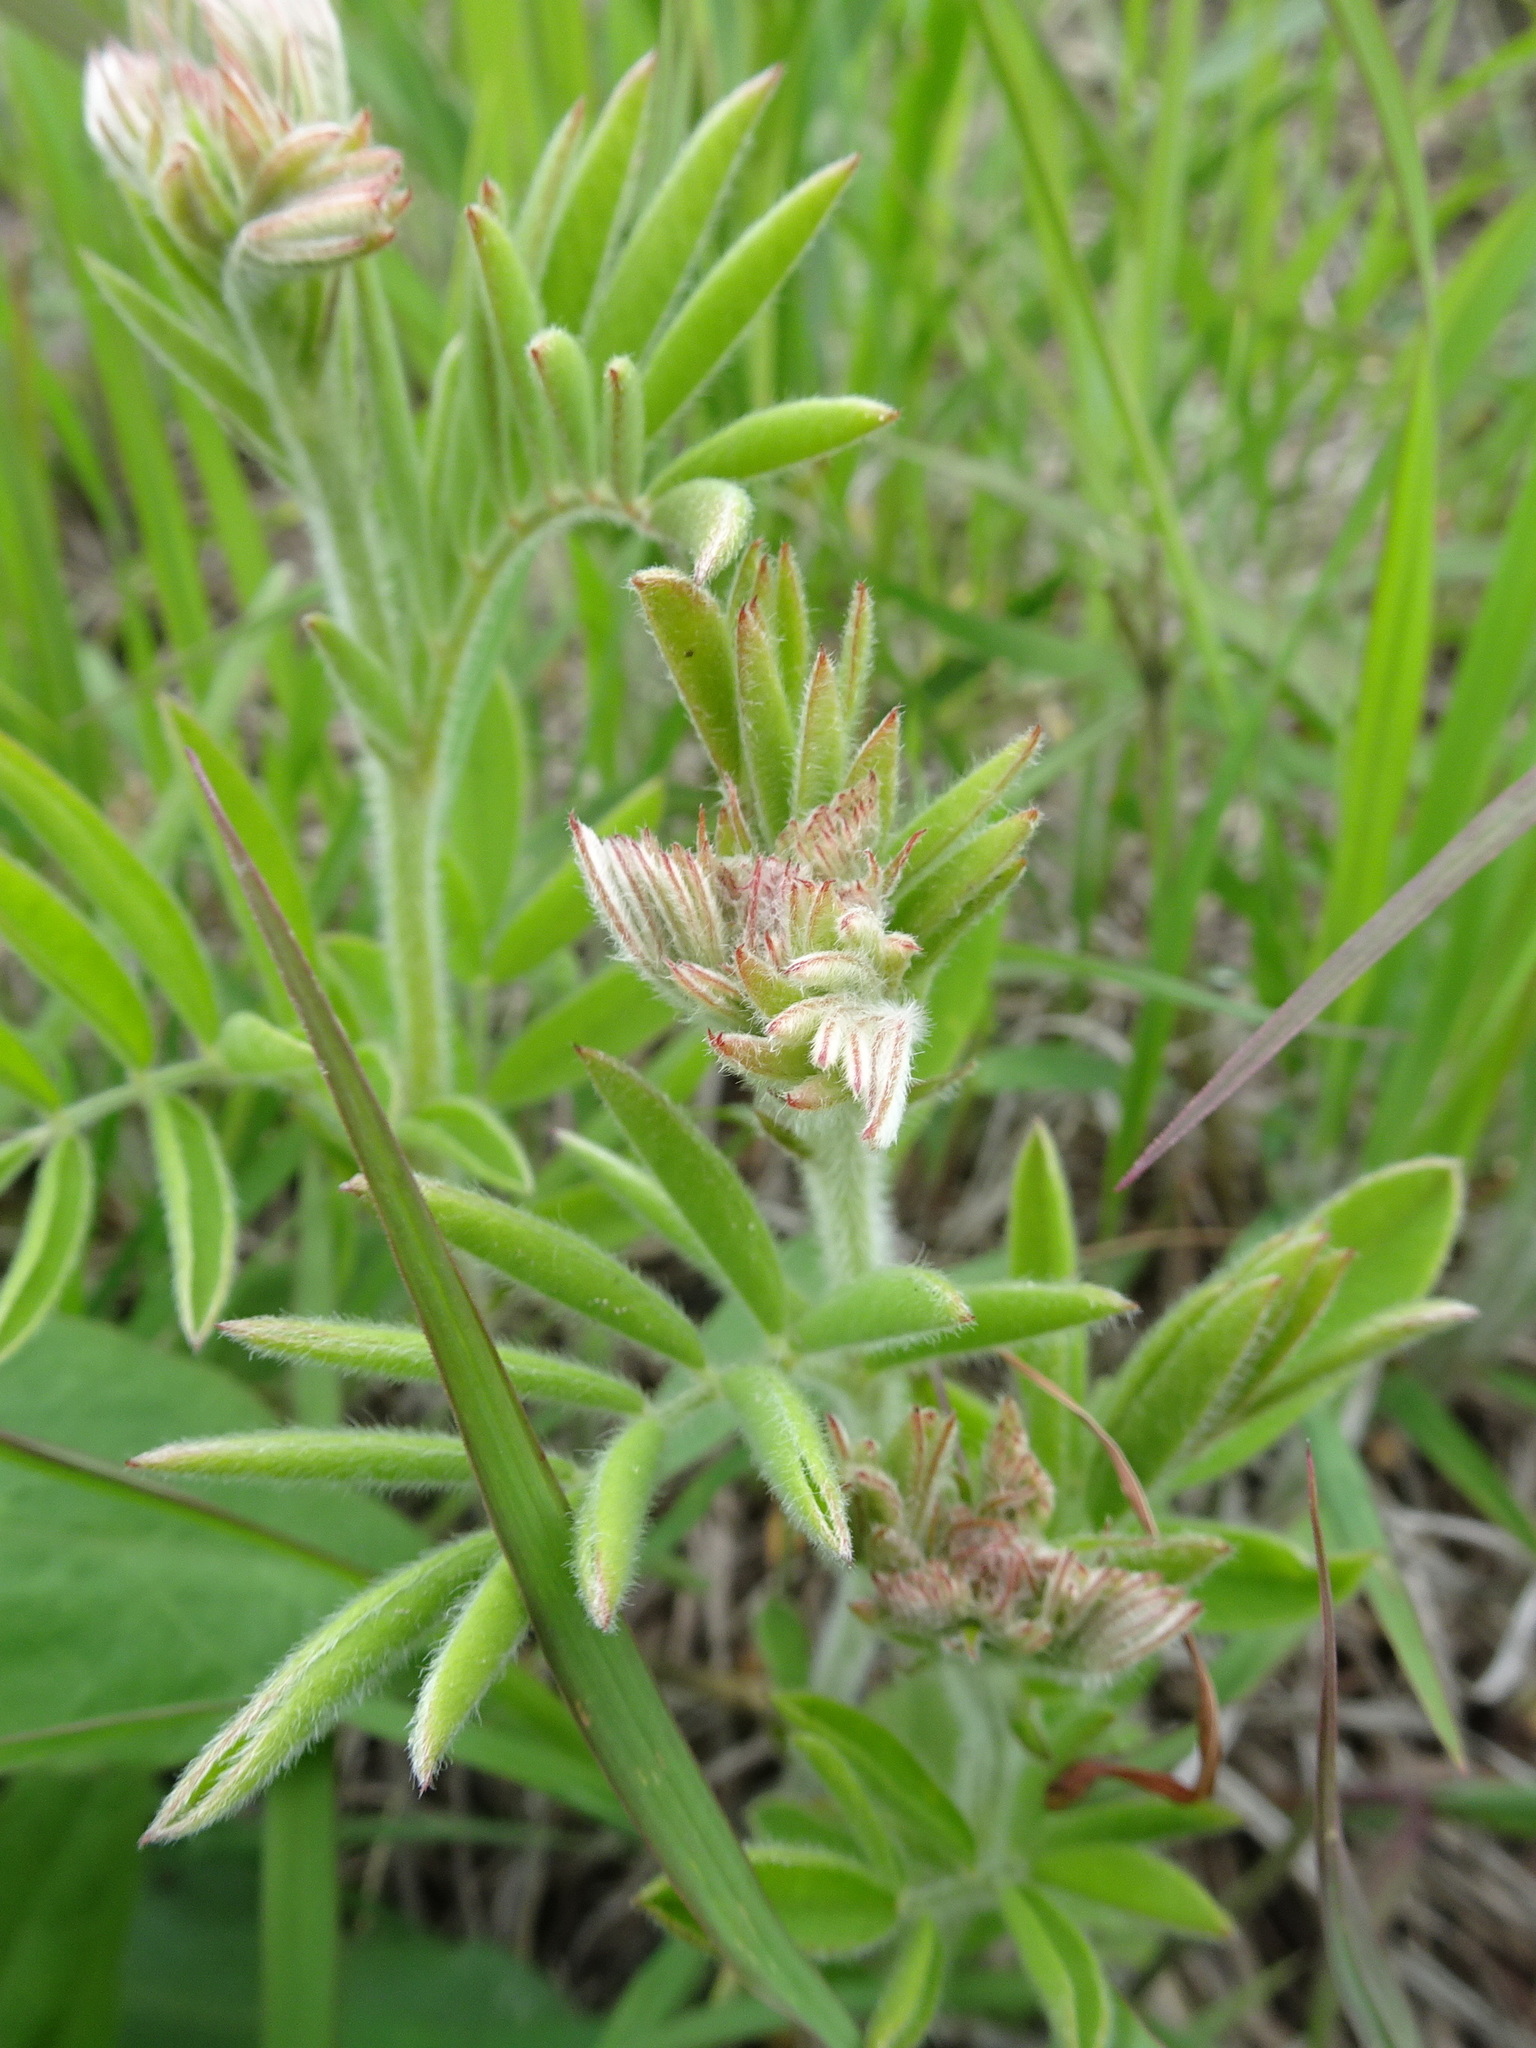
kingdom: Plantae
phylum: Tracheophyta
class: Magnoliopsida
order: Fabales
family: Fabaceae
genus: Tephrosia
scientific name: Tephrosia virginiana
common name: Rabbit-pea
